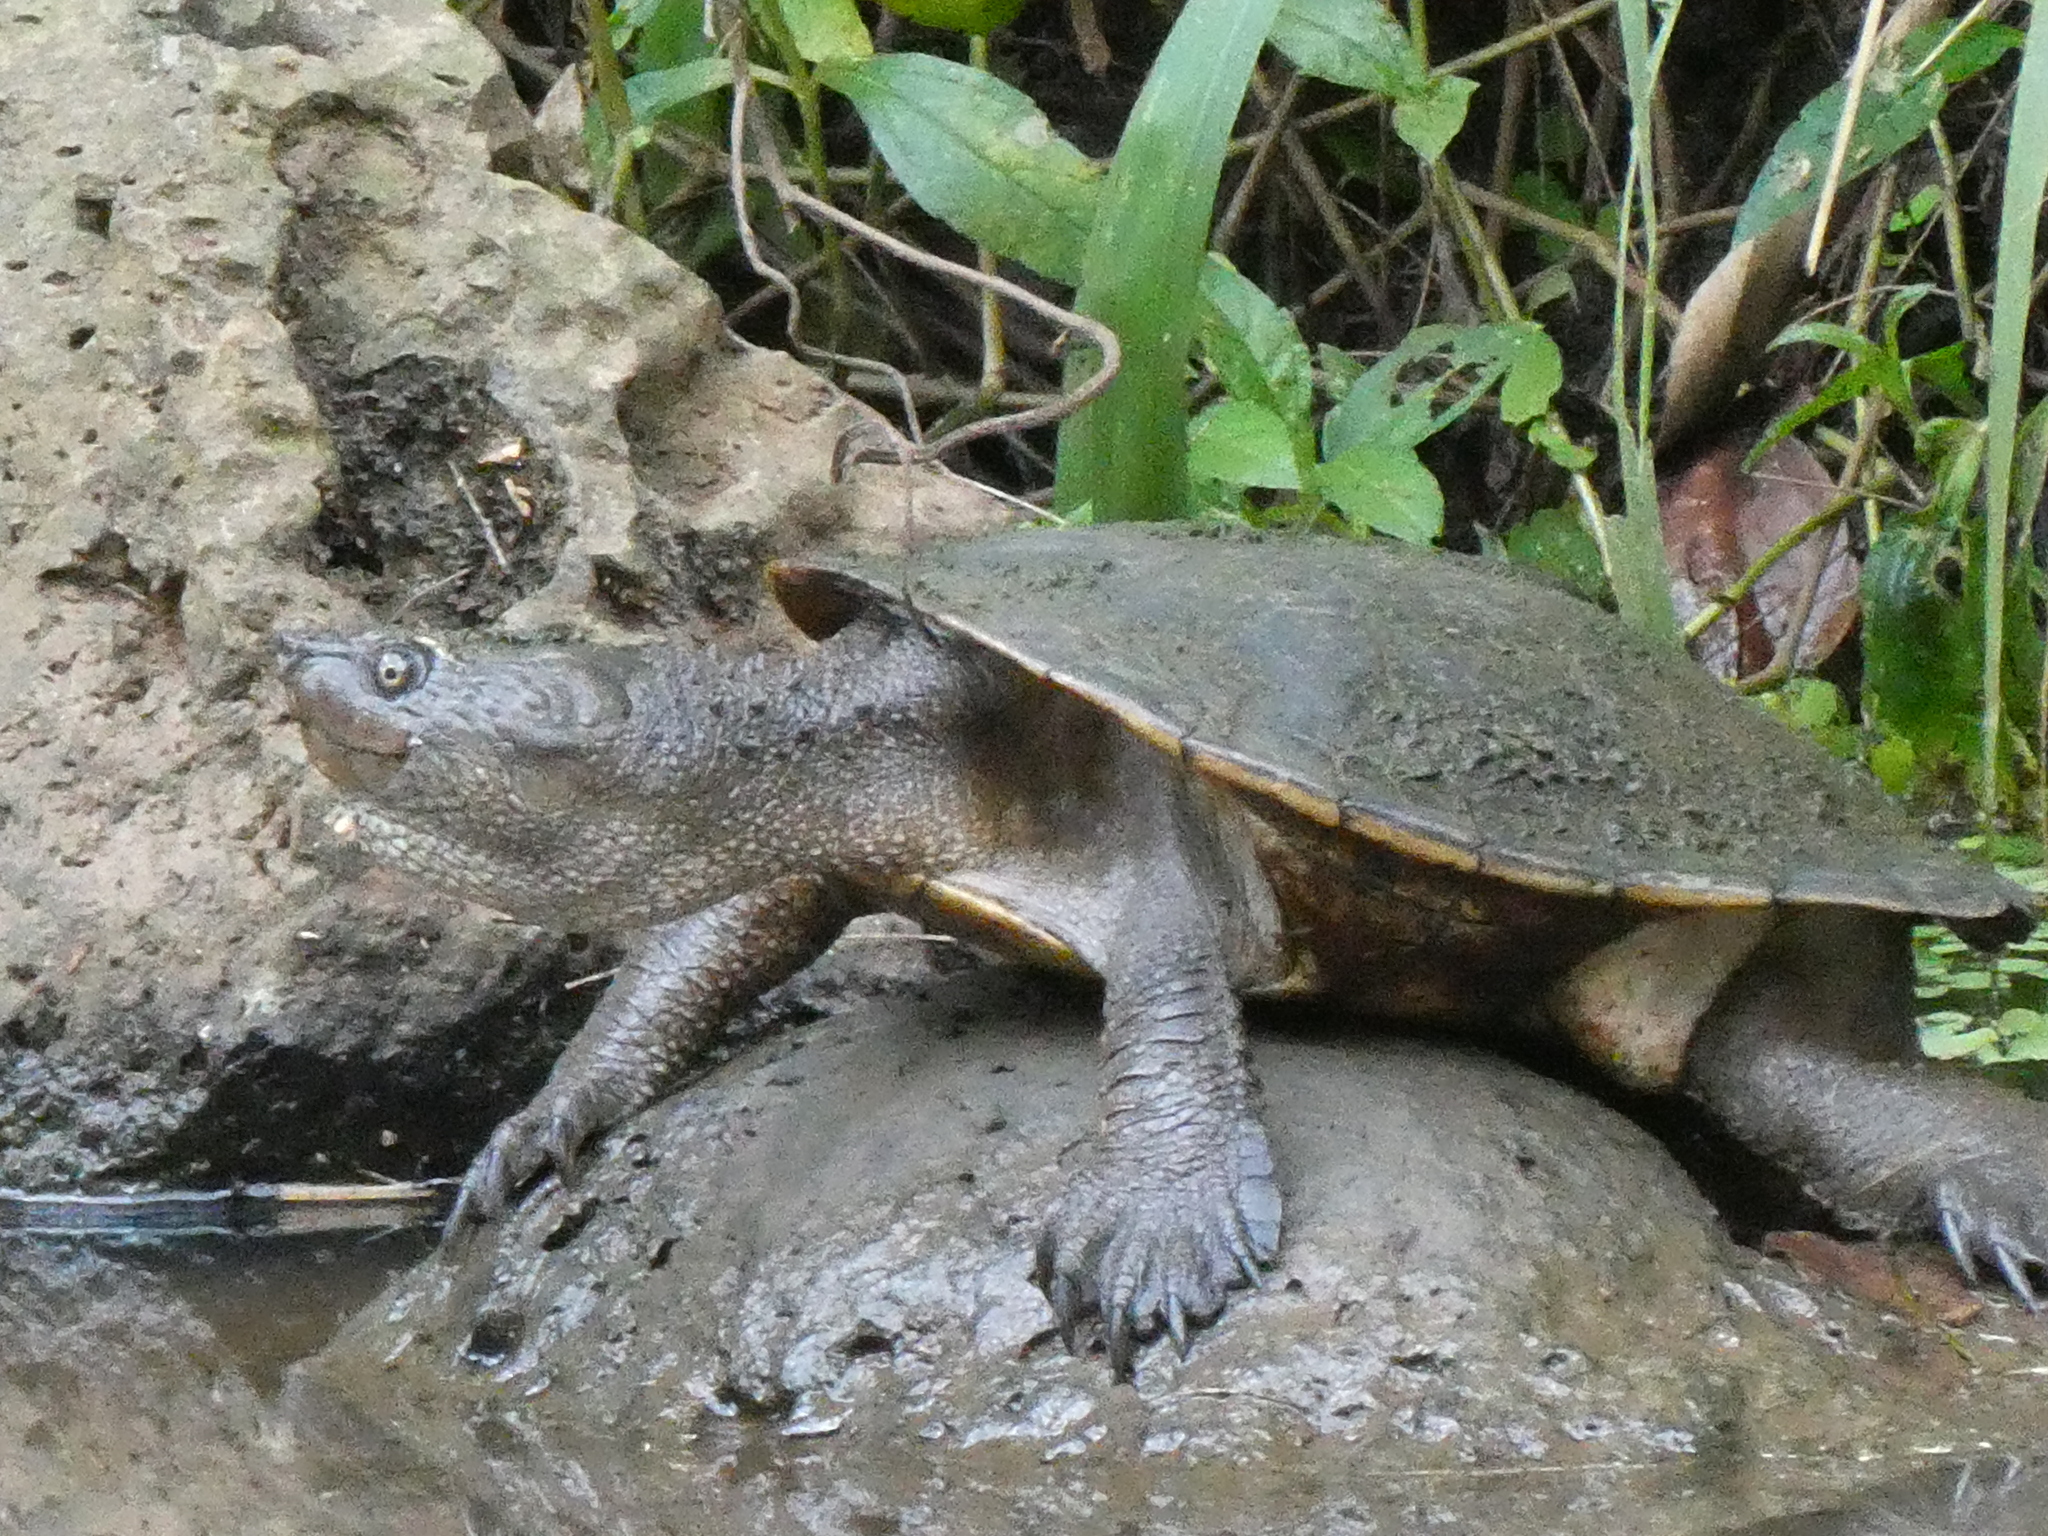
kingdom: Animalia
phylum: Chordata
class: Testudines
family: Chelidae
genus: Myuchelys
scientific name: Myuchelys latisternum
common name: Serrated snapping turtle
